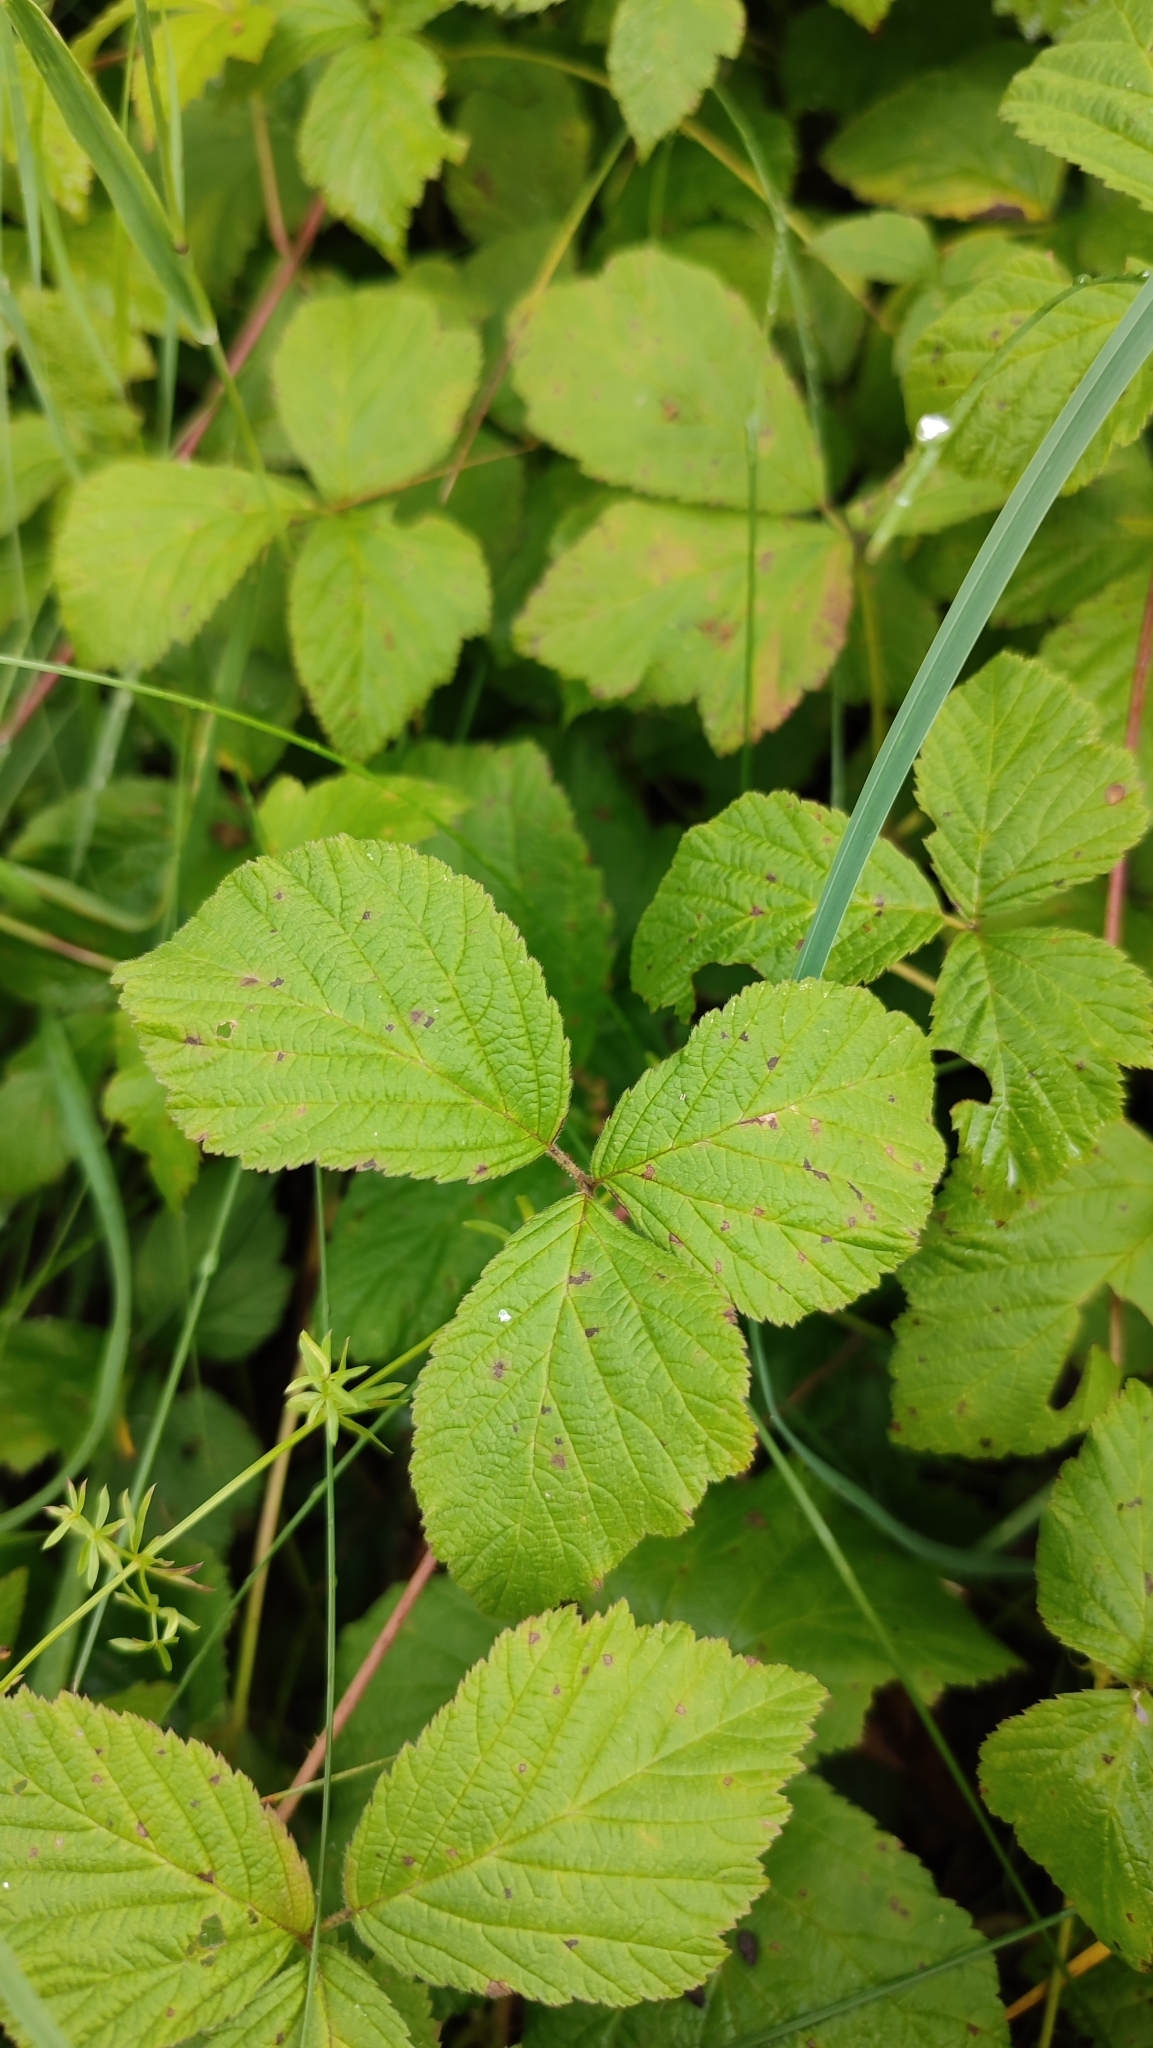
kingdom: Plantae
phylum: Tracheophyta
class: Magnoliopsida
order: Rosales
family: Rosaceae
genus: Rubus
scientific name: Rubus caesius
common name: Dewberry
